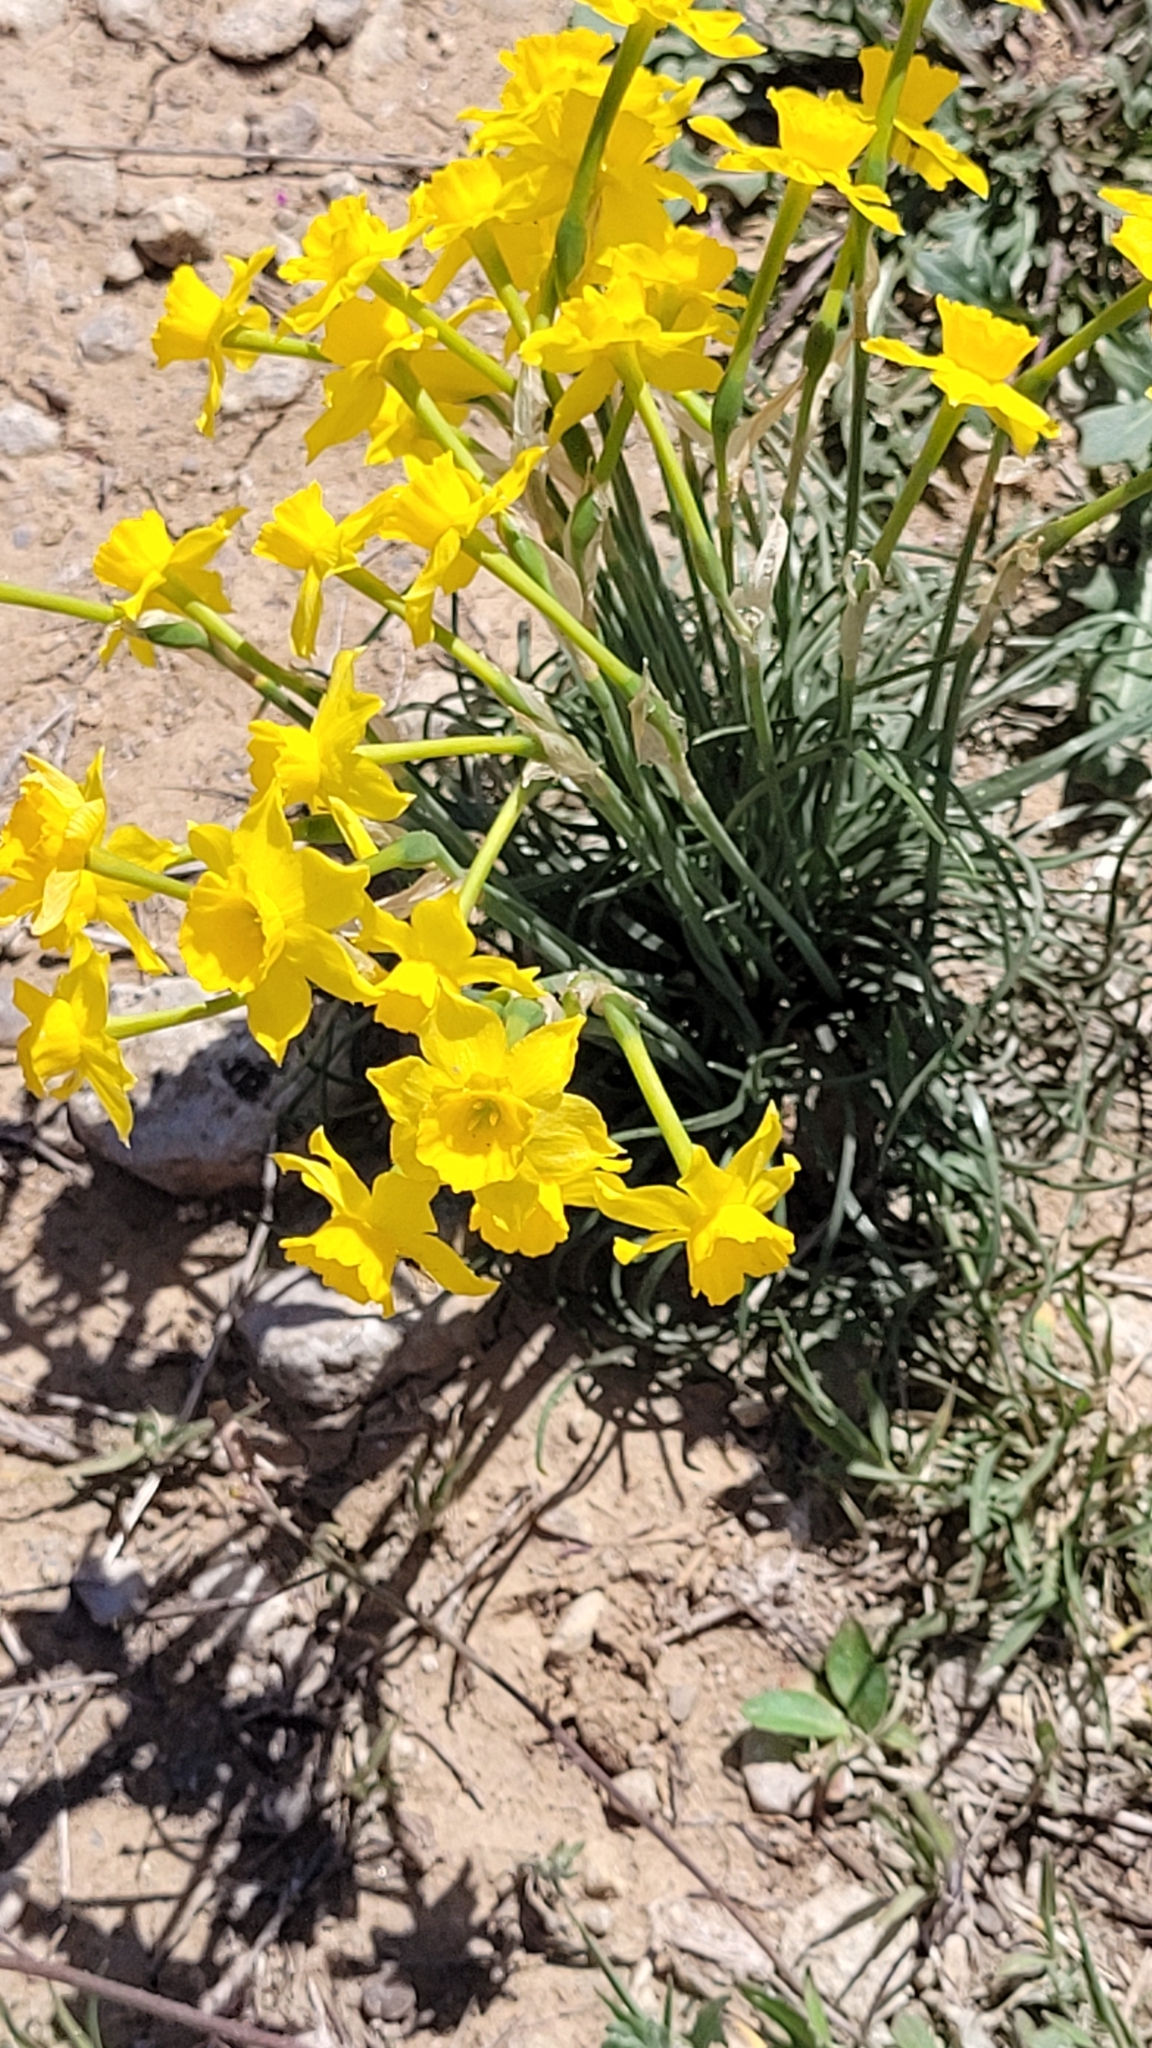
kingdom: Plantae
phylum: Tracheophyta
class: Liliopsida
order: Asparagales
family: Amaryllidaceae
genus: Narcissus
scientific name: Narcissus assoanus
